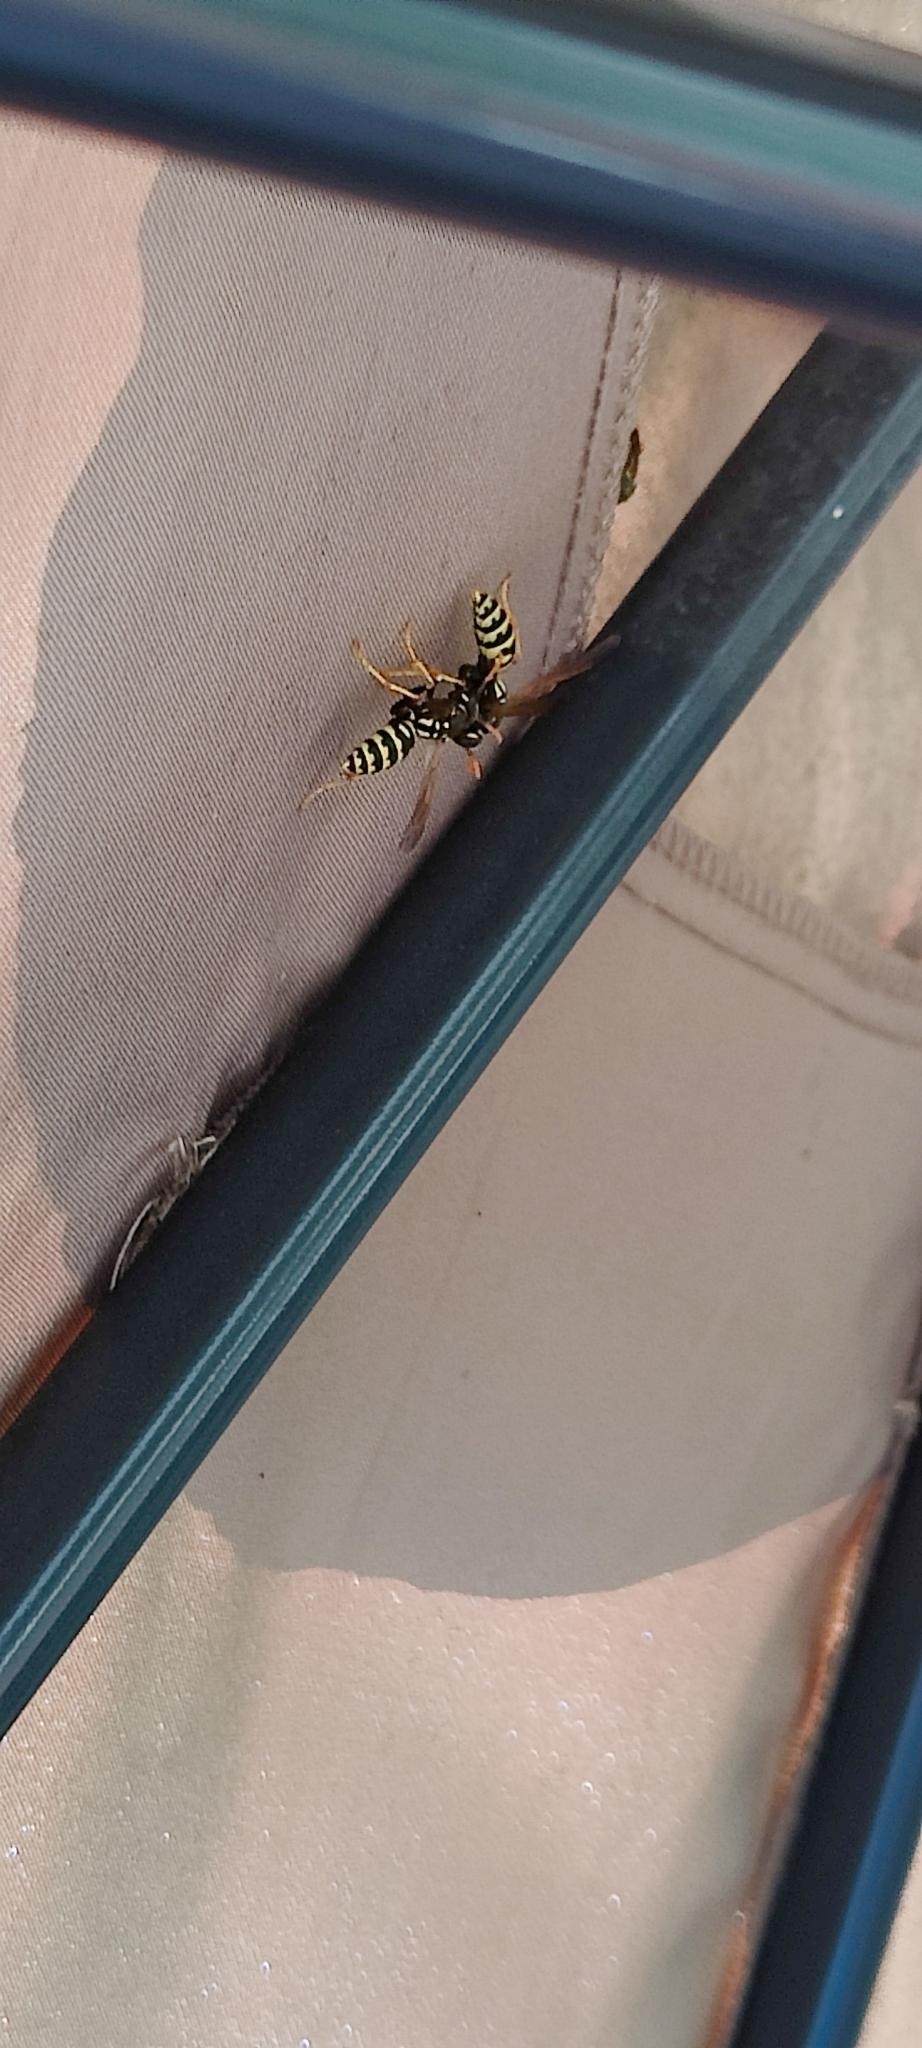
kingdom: Animalia
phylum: Arthropoda
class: Insecta
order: Hymenoptera
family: Eumenidae
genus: Polistes
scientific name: Polistes dominula
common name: Paper wasp
